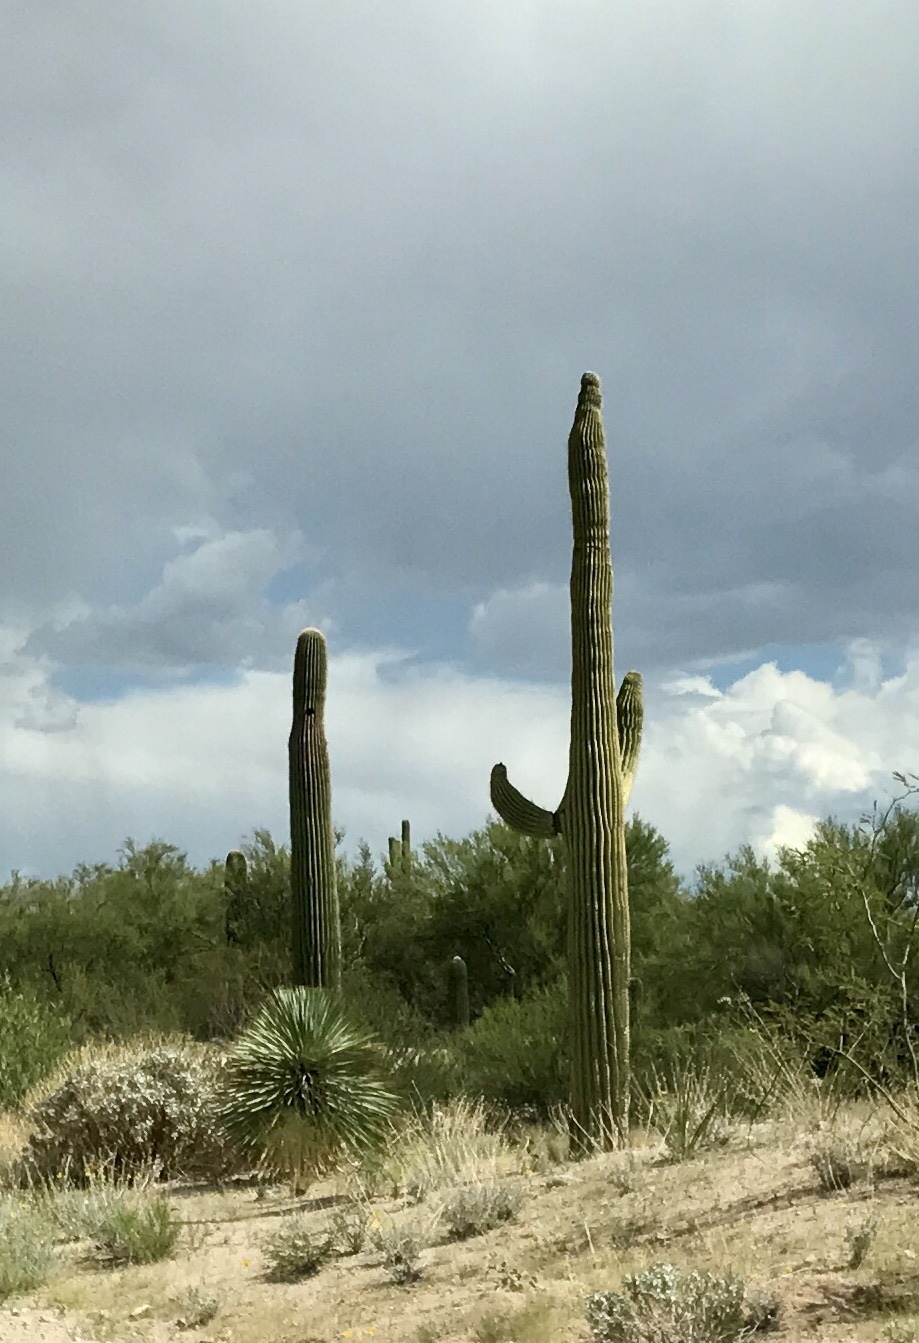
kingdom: Plantae
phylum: Tracheophyta
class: Magnoliopsida
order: Caryophyllales
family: Cactaceae
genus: Carnegiea
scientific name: Carnegiea gigantea
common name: Saguaro
